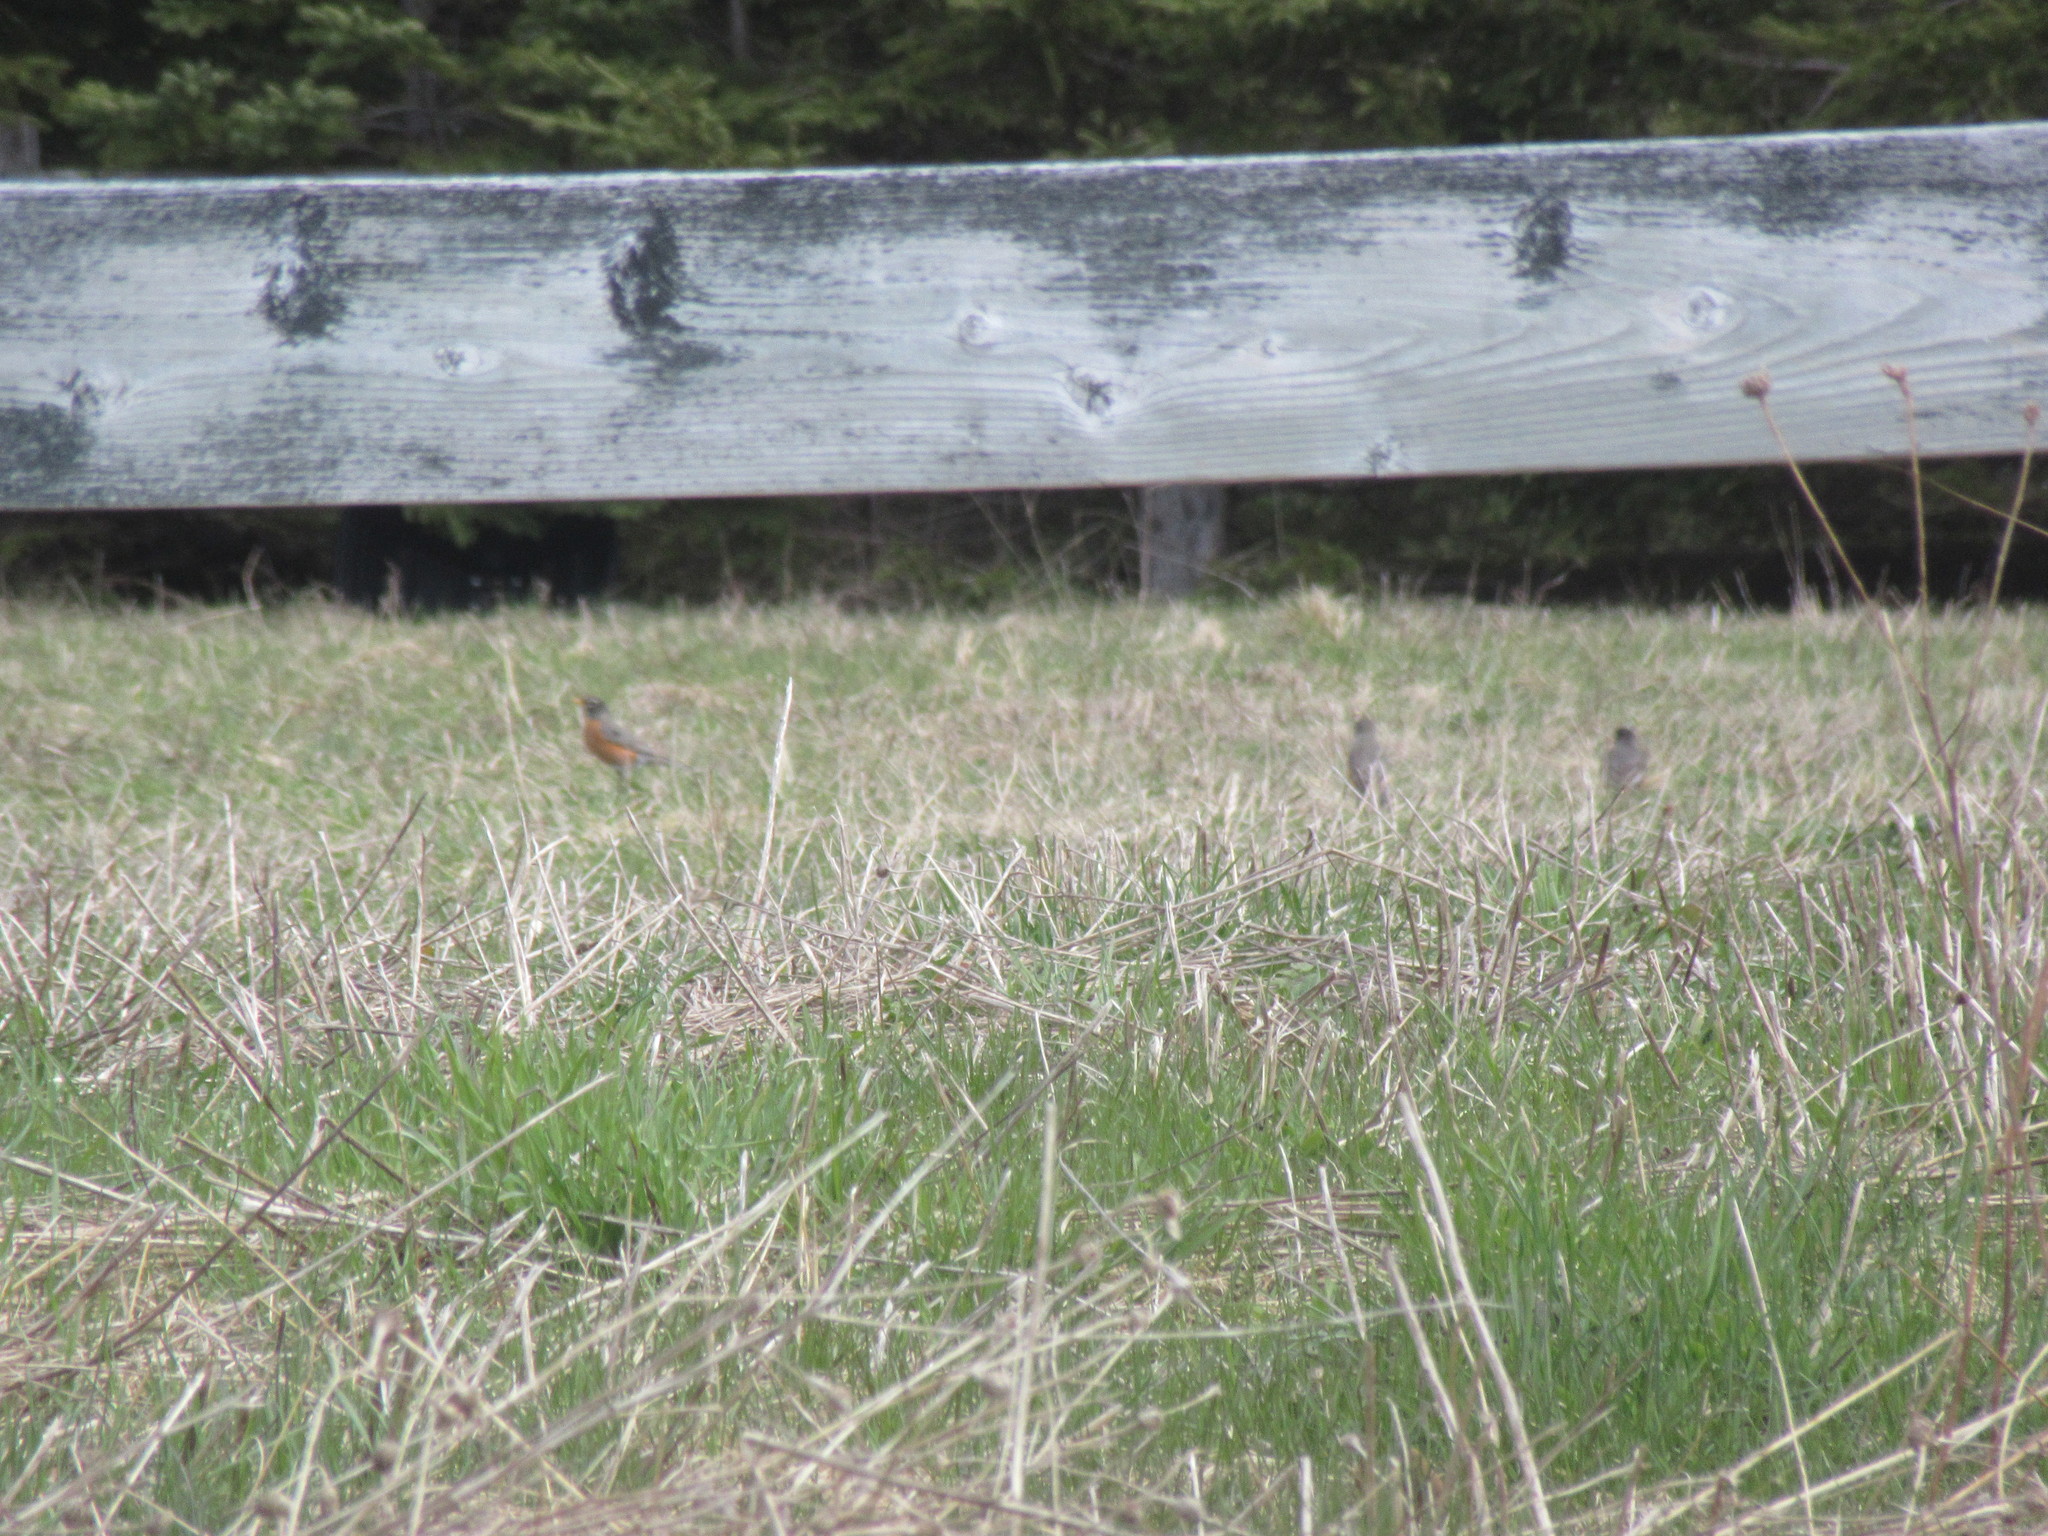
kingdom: Animalia
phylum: Chordata
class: Aves
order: Passeriformes
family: Turdidae
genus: Turdus
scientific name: Turdus migratorius
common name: American robin
